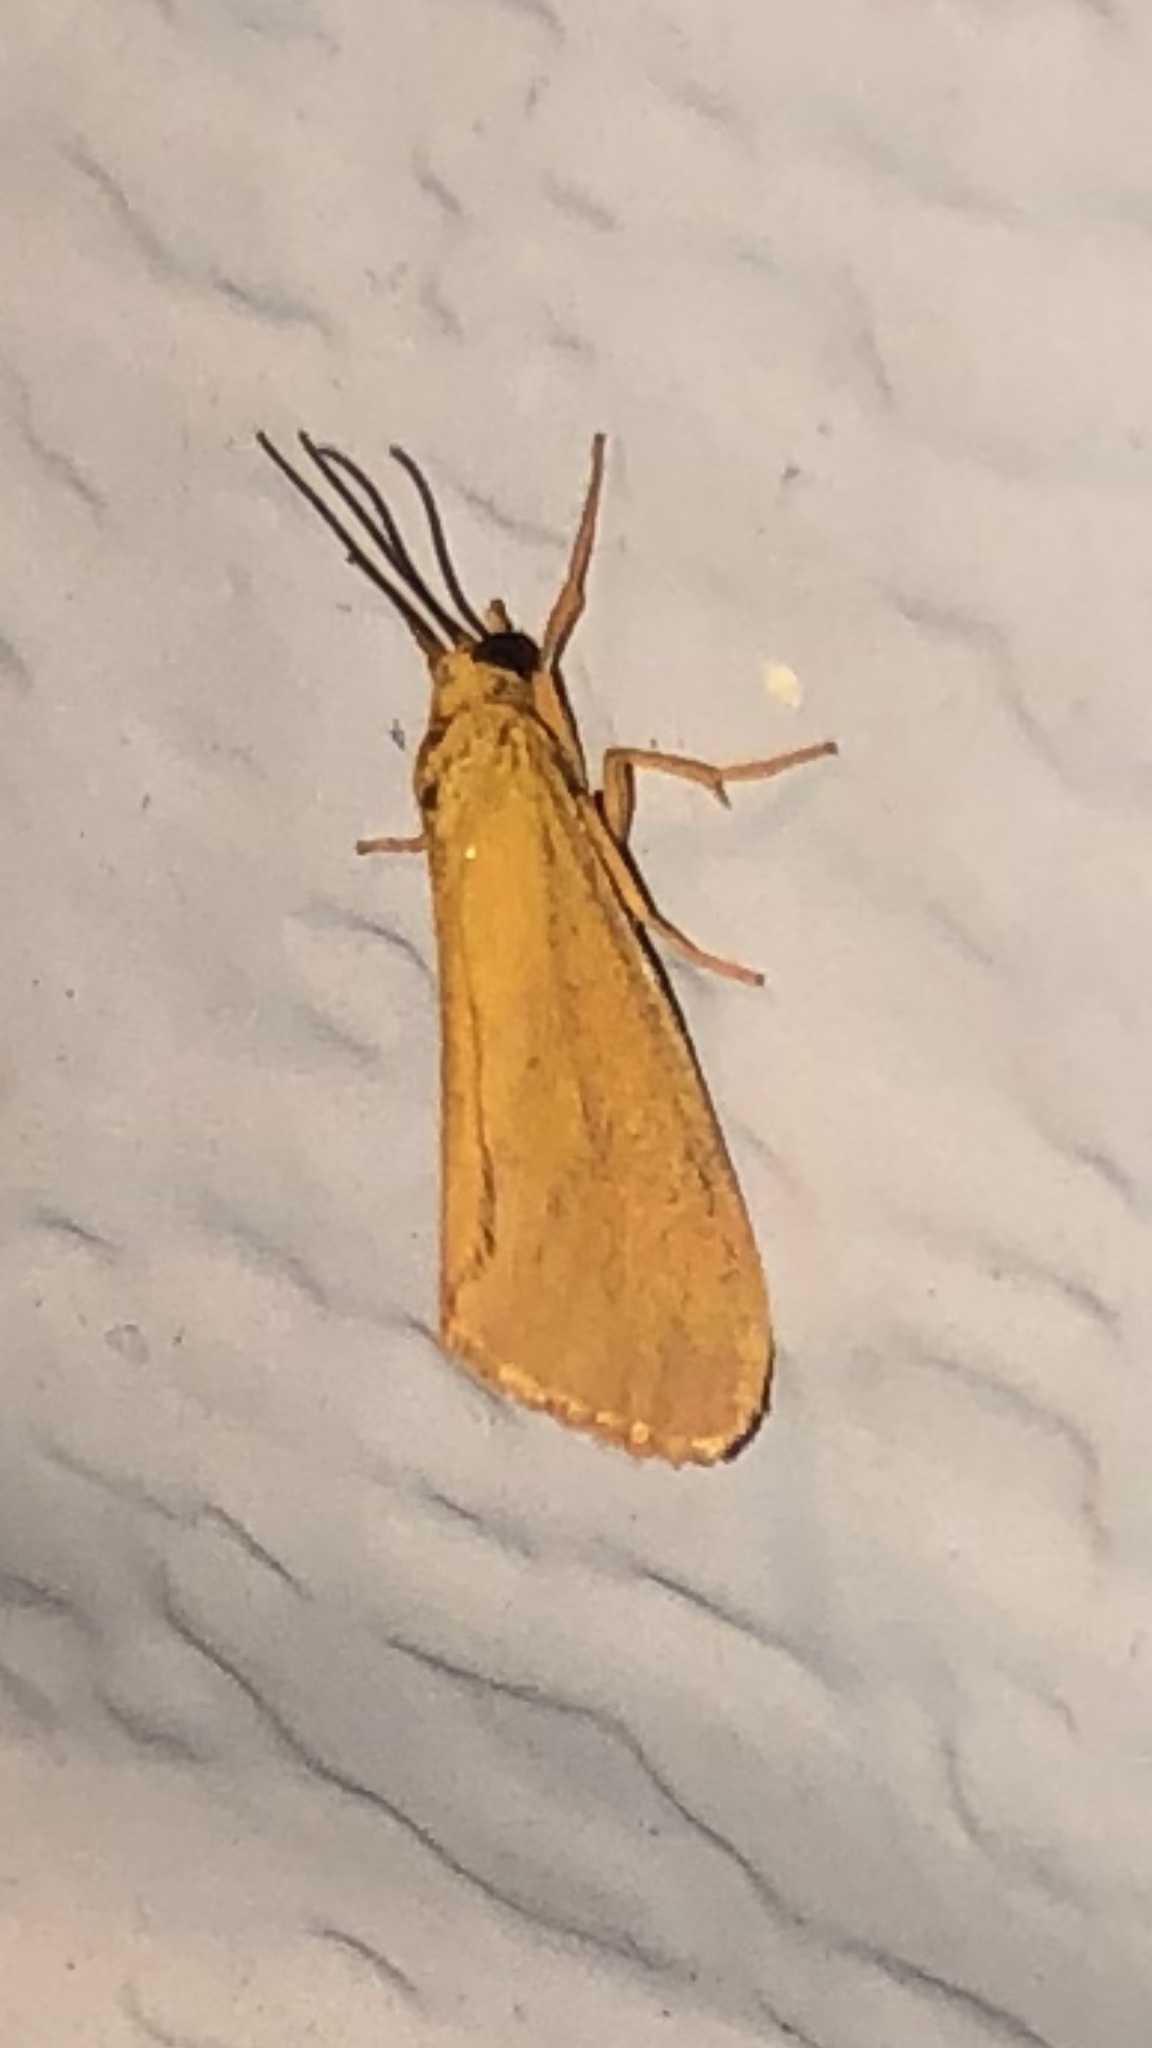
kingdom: Animalia
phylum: Arthropoda
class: Insecta
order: Lepidoptera
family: Erebidae
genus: Virbia
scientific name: Virbia aurantiaca
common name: Orange virbia moth
